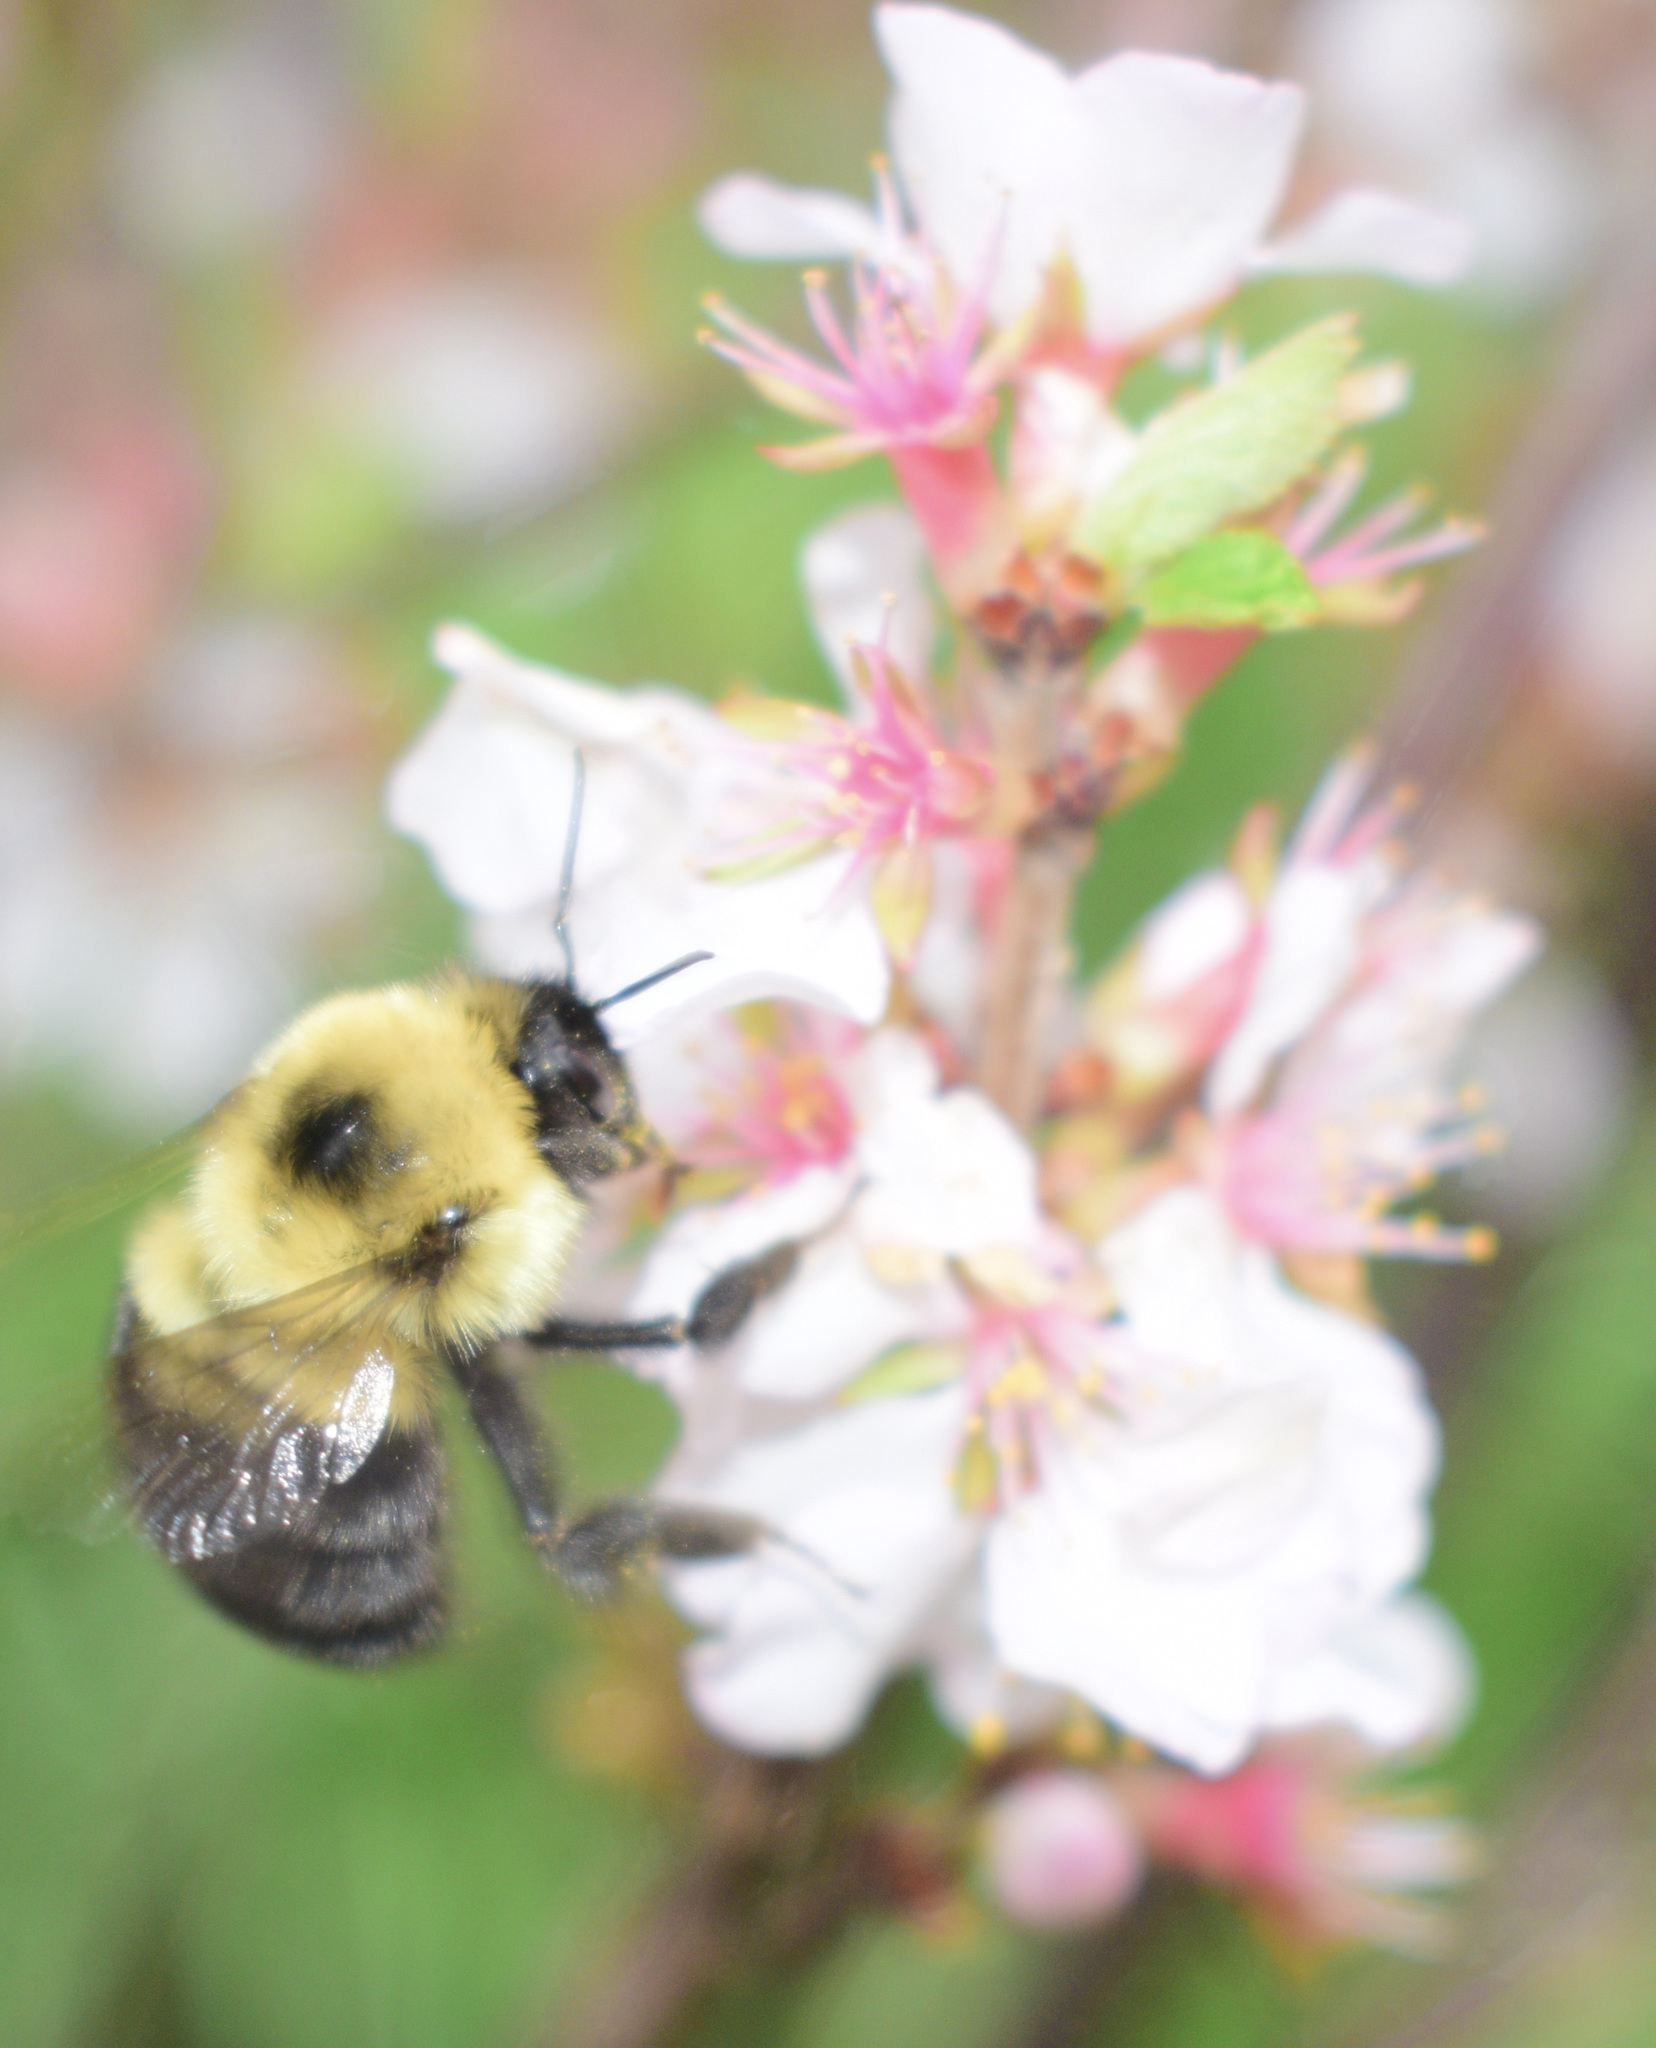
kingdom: Animalia
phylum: Arthropoda
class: Insecta
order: Hymenoptera
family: Apidae
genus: Bombus
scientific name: Bombus bimaculatus
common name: Two-spotted bumble bee
